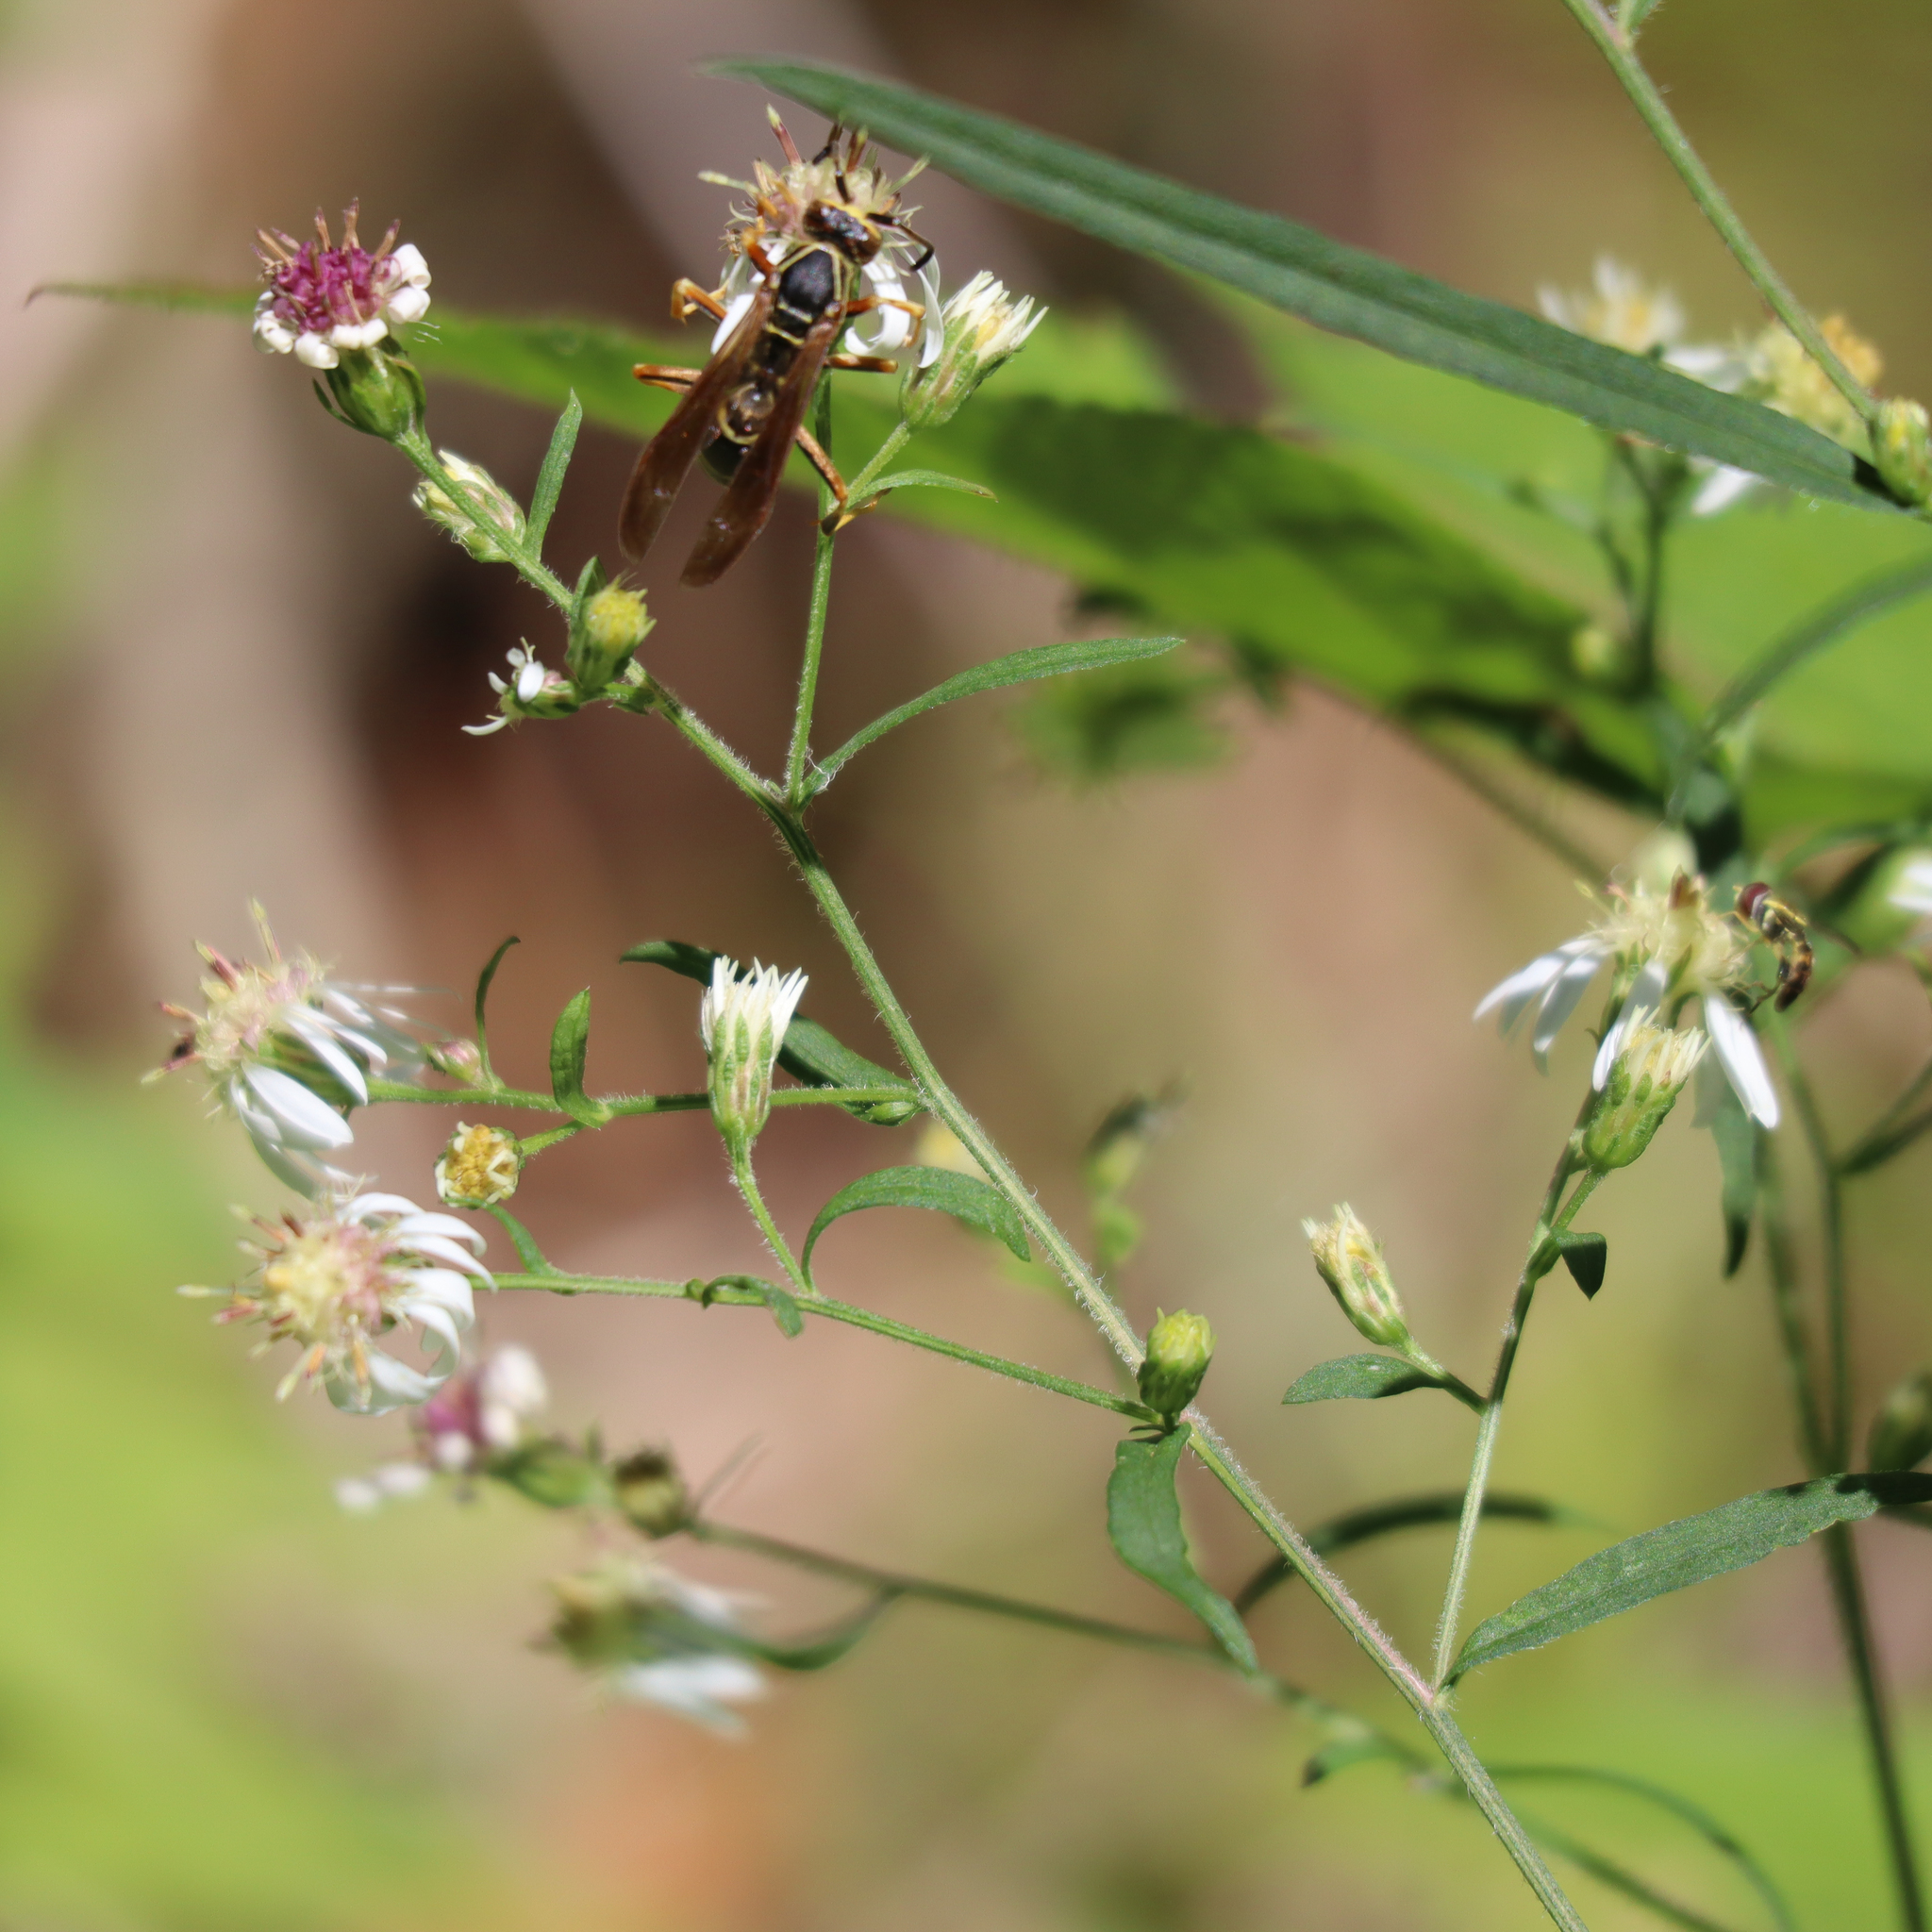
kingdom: Animalia
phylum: Arthropoda
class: Insecta
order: Hymenoptera
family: Eumenidae
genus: Polistes
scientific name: Polistes fuscatus
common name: Dark paper wasp
